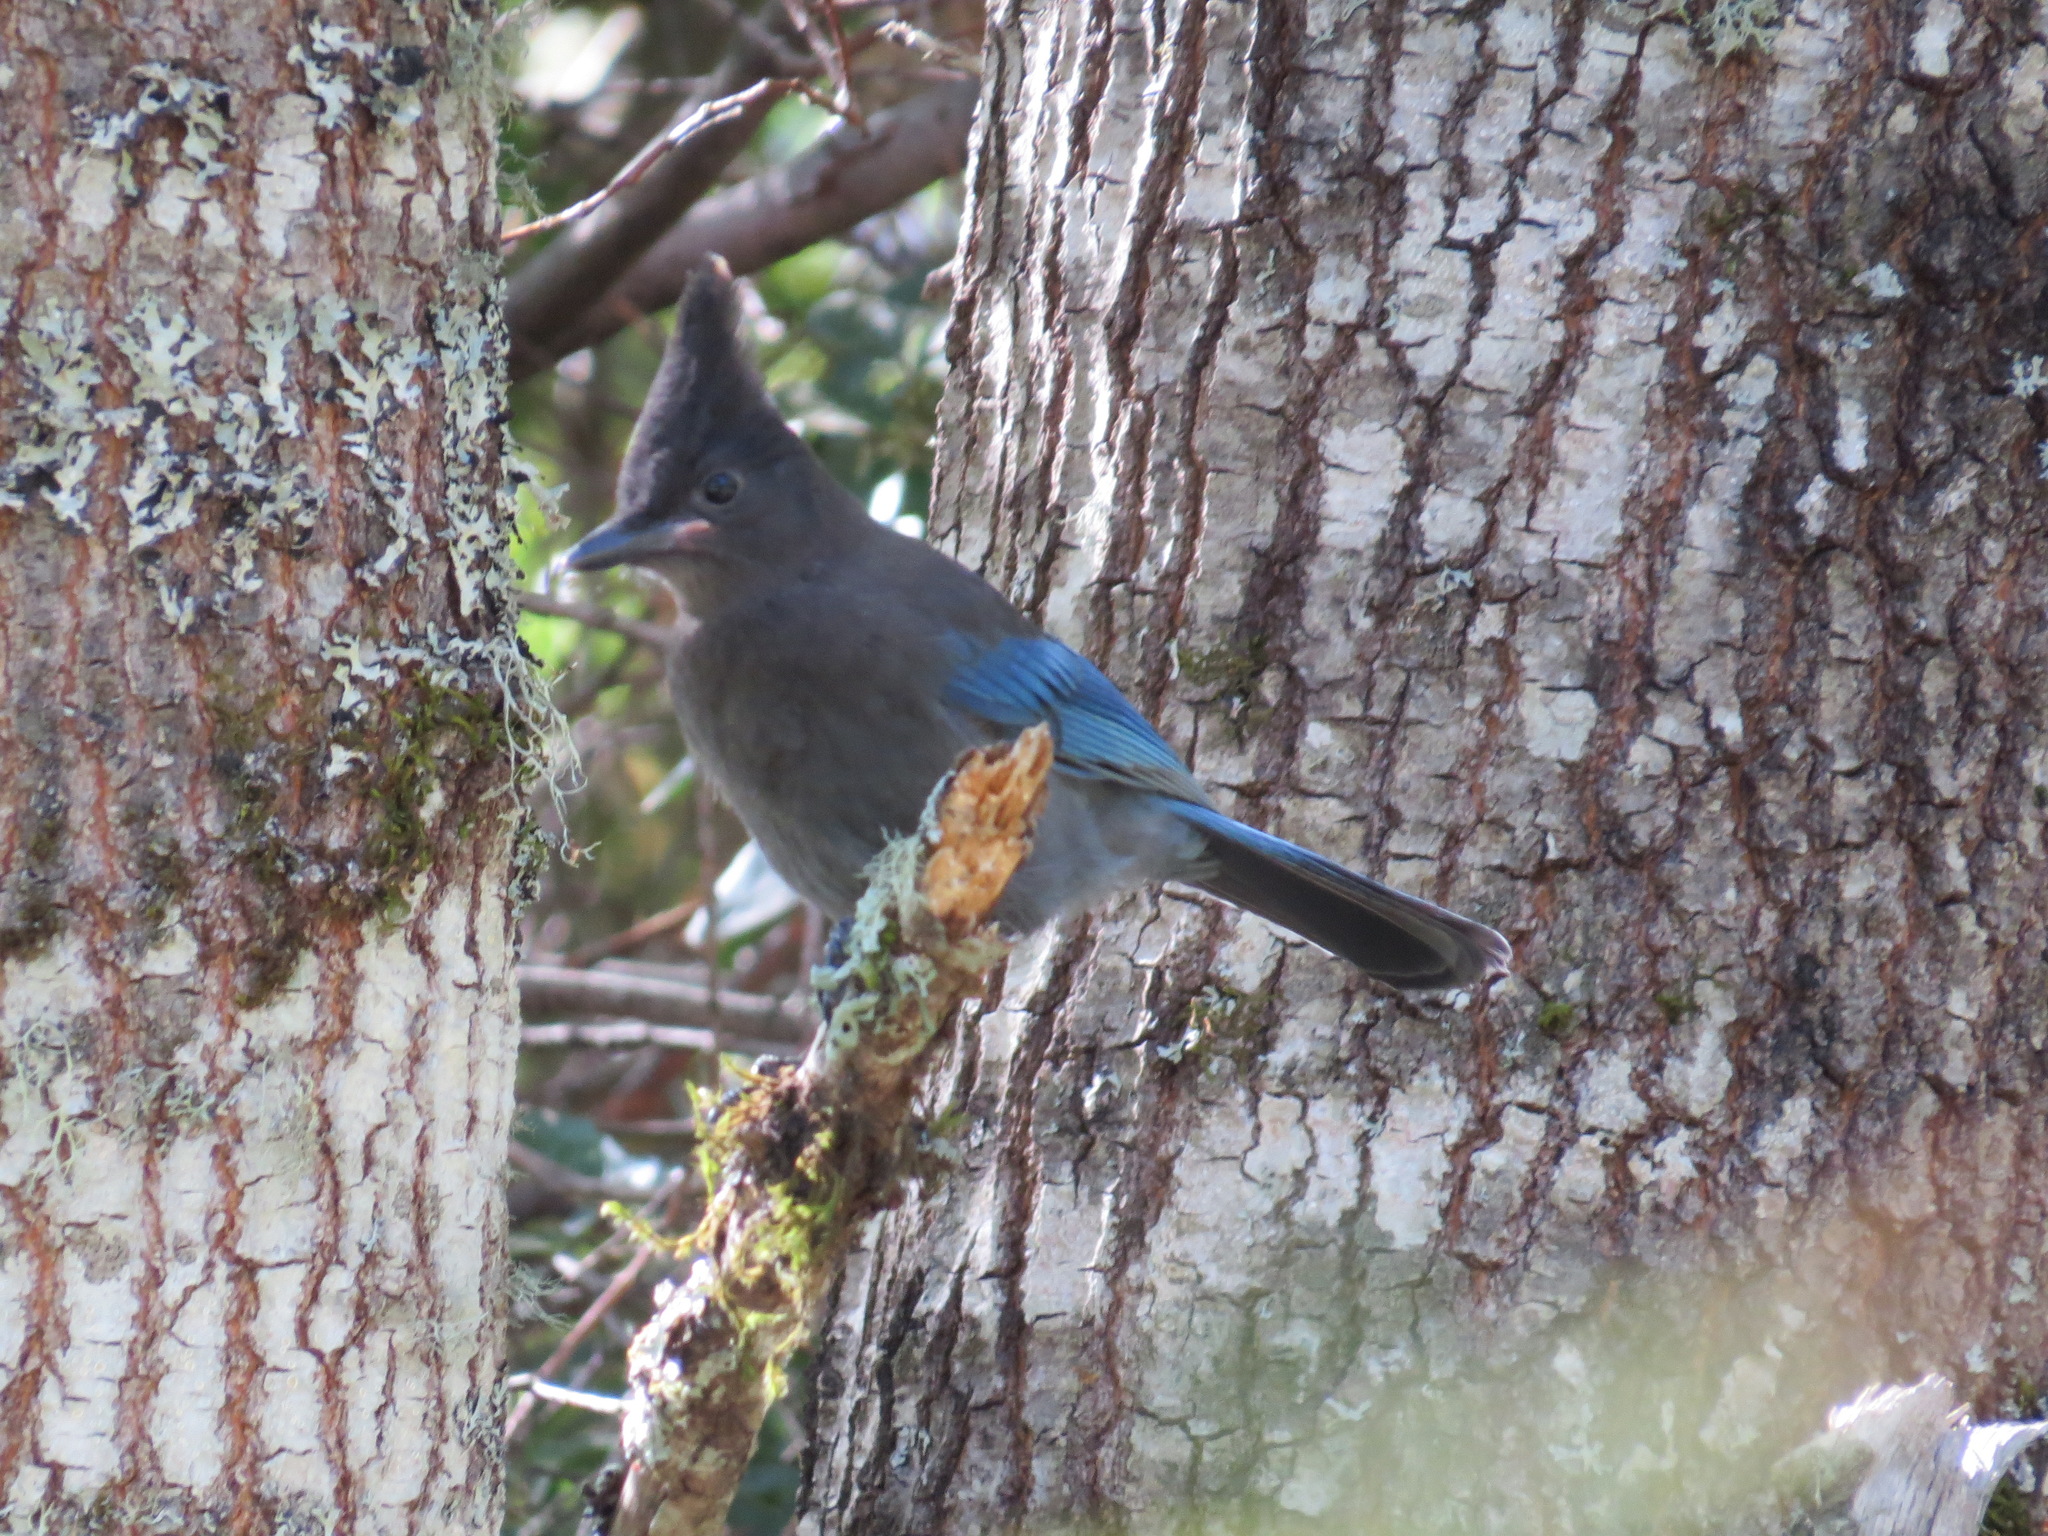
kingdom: Animalia
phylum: Chordata
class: Aves
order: Passeriformes
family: Corvidae
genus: Cyanocitta
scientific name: Cyanocitta stelleri
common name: Steller's jay
